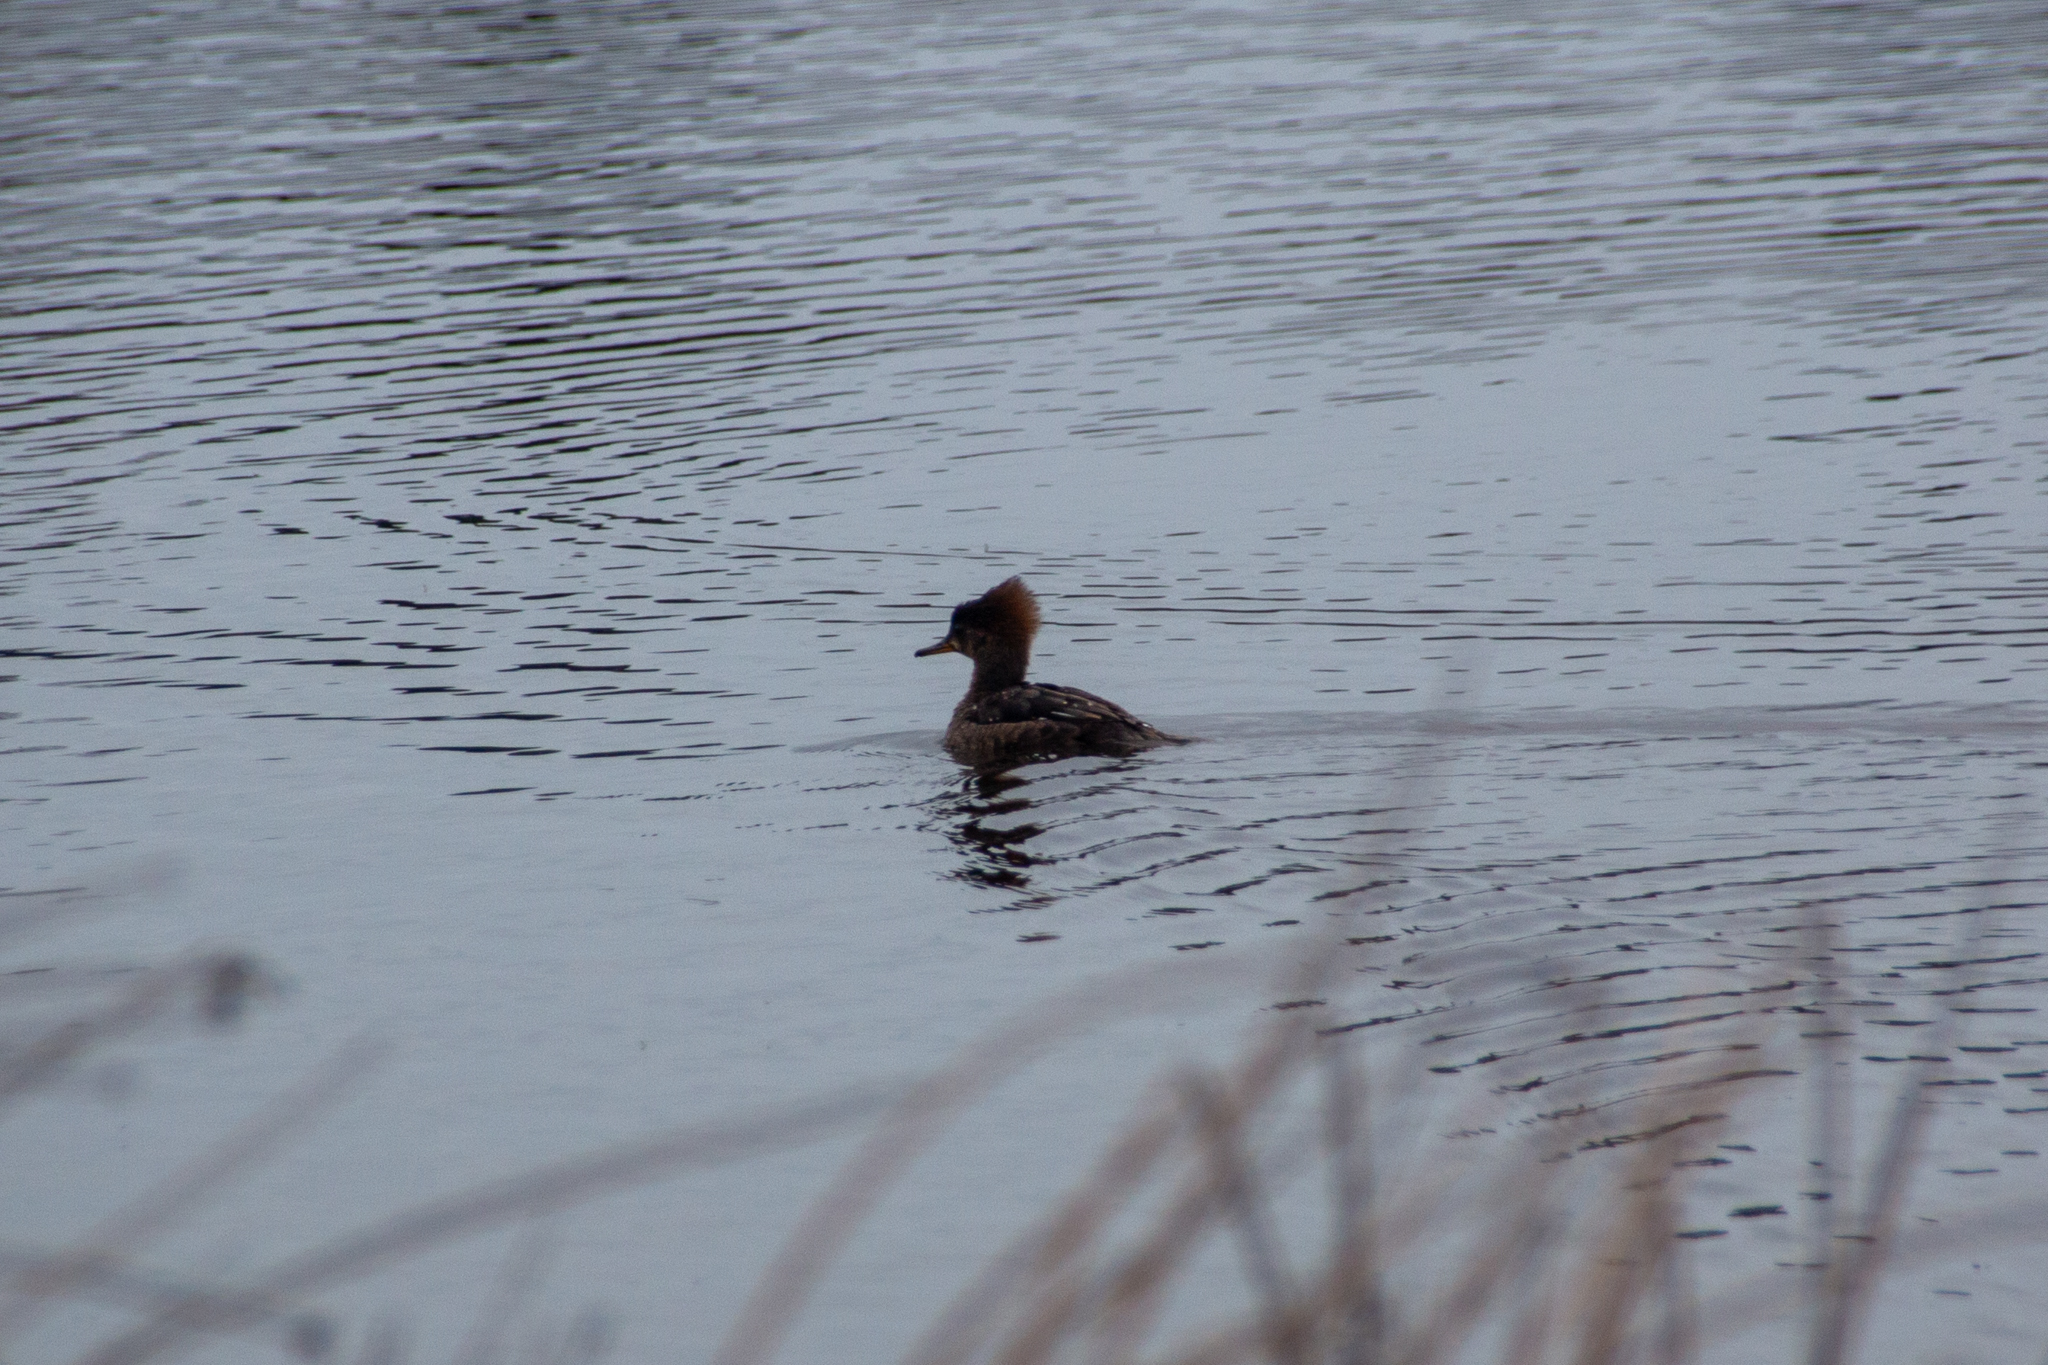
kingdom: Animalia
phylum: Chordata
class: Aves
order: Anseriformes
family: Anatidae
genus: Lophodytes
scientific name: Lophodytes cucullatus
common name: Hooded merganser
